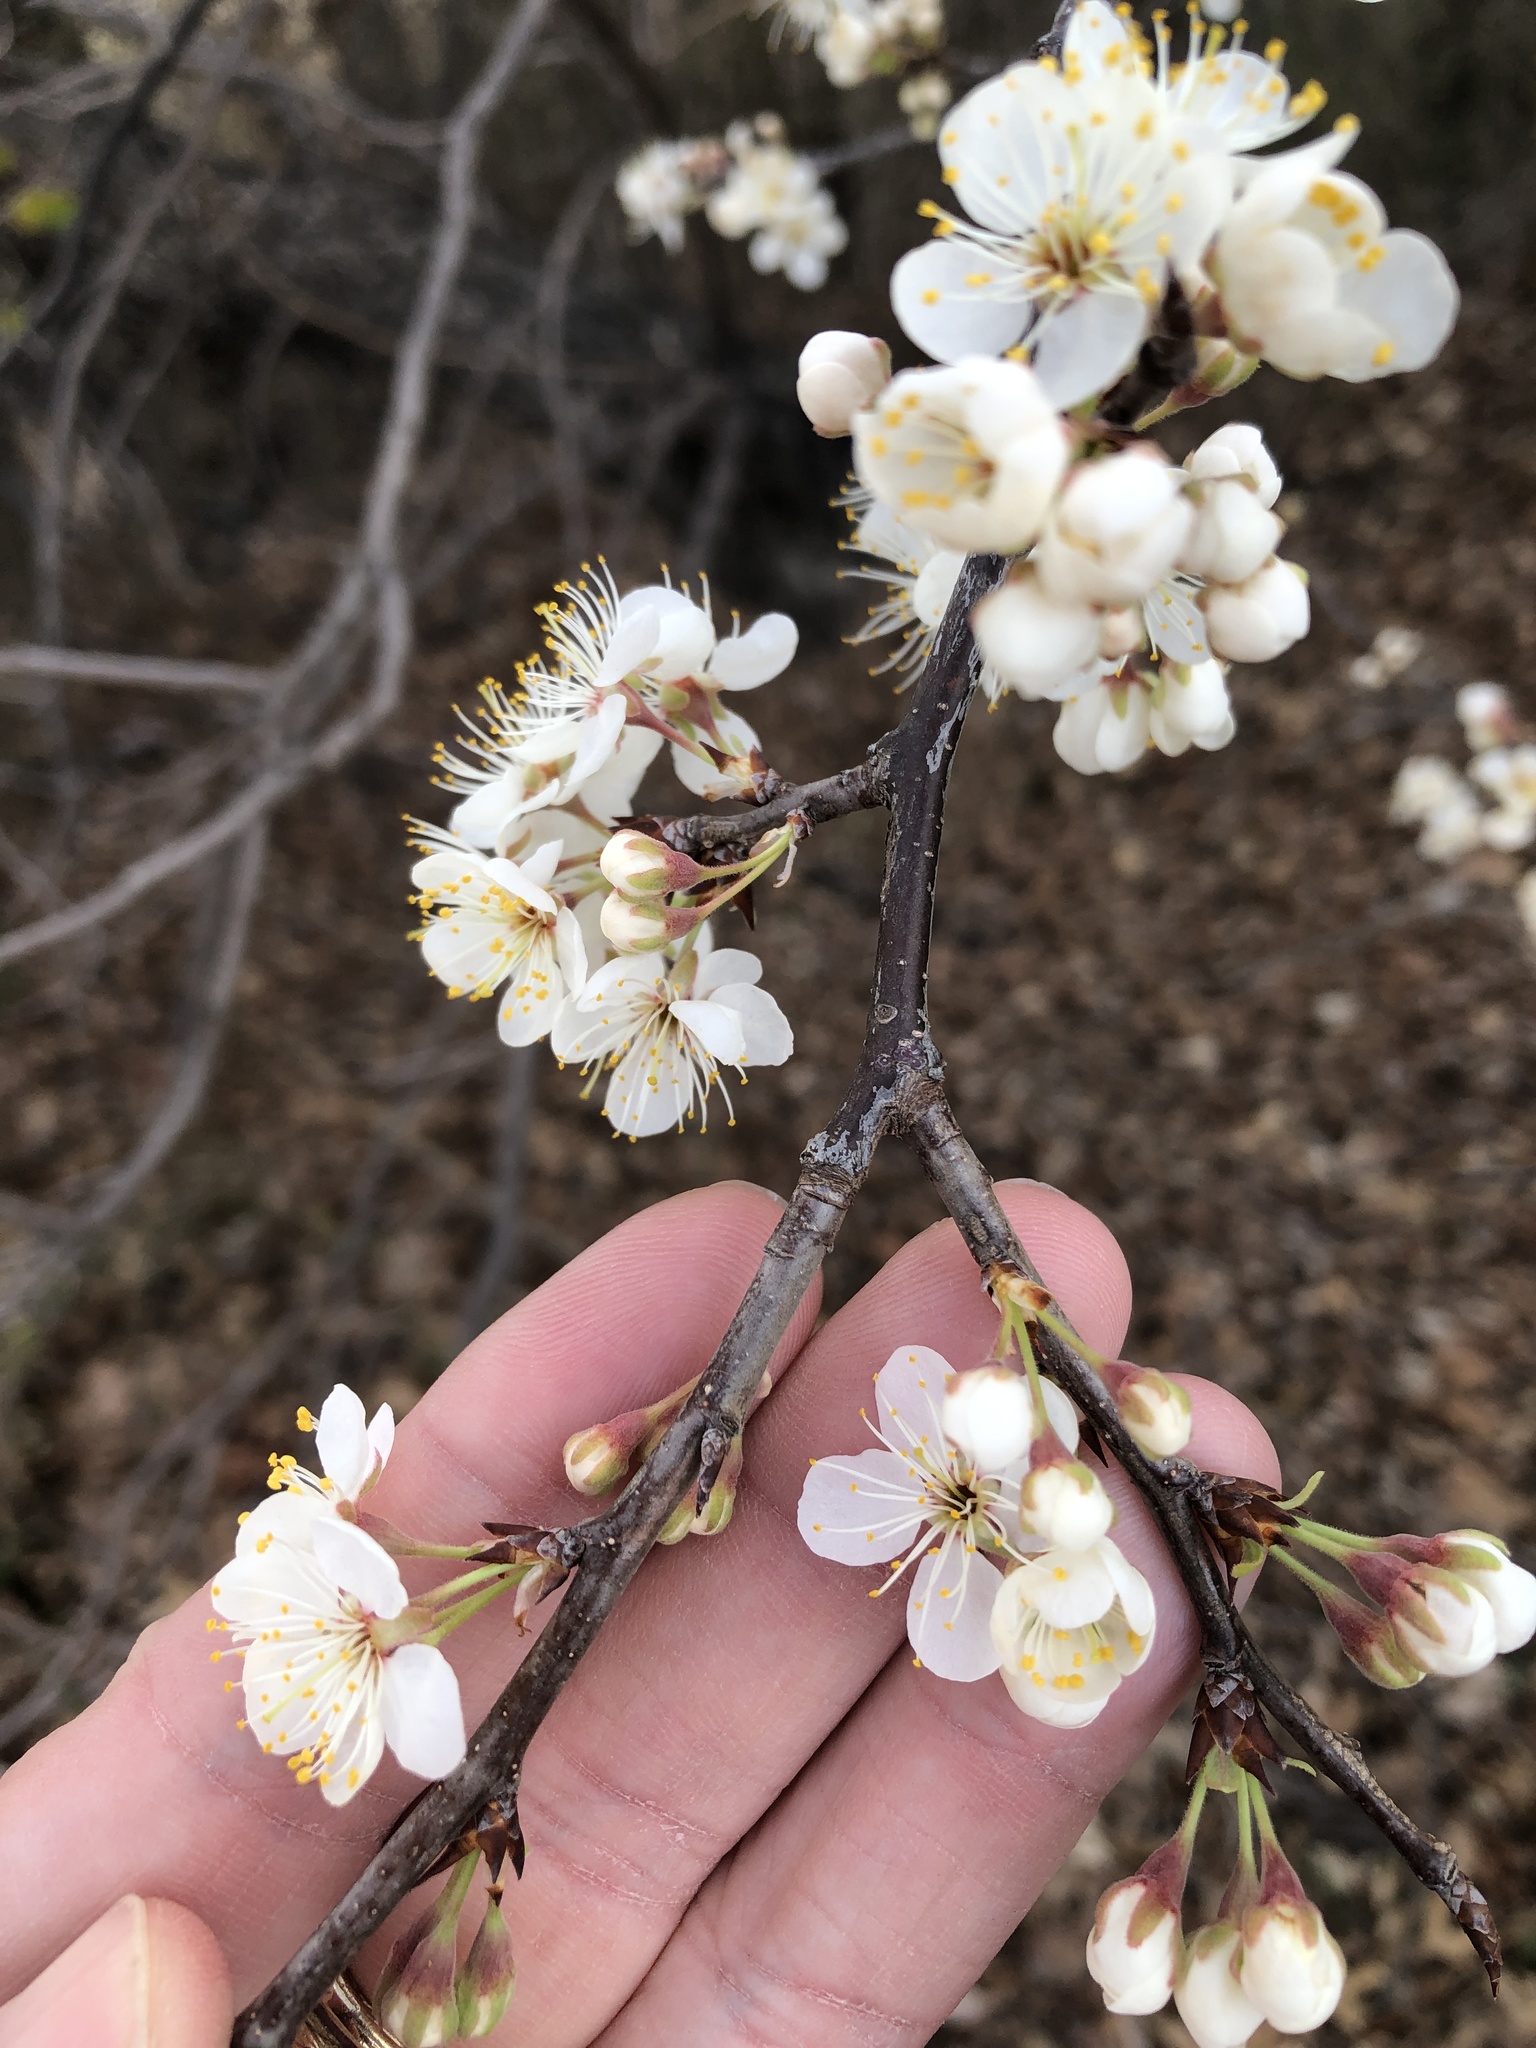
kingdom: Plantae
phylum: Tracheophyta
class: Magnoliopsida
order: Rosales
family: Rosaceae
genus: Prunus
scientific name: Prunus mexicana
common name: Mexican plum
